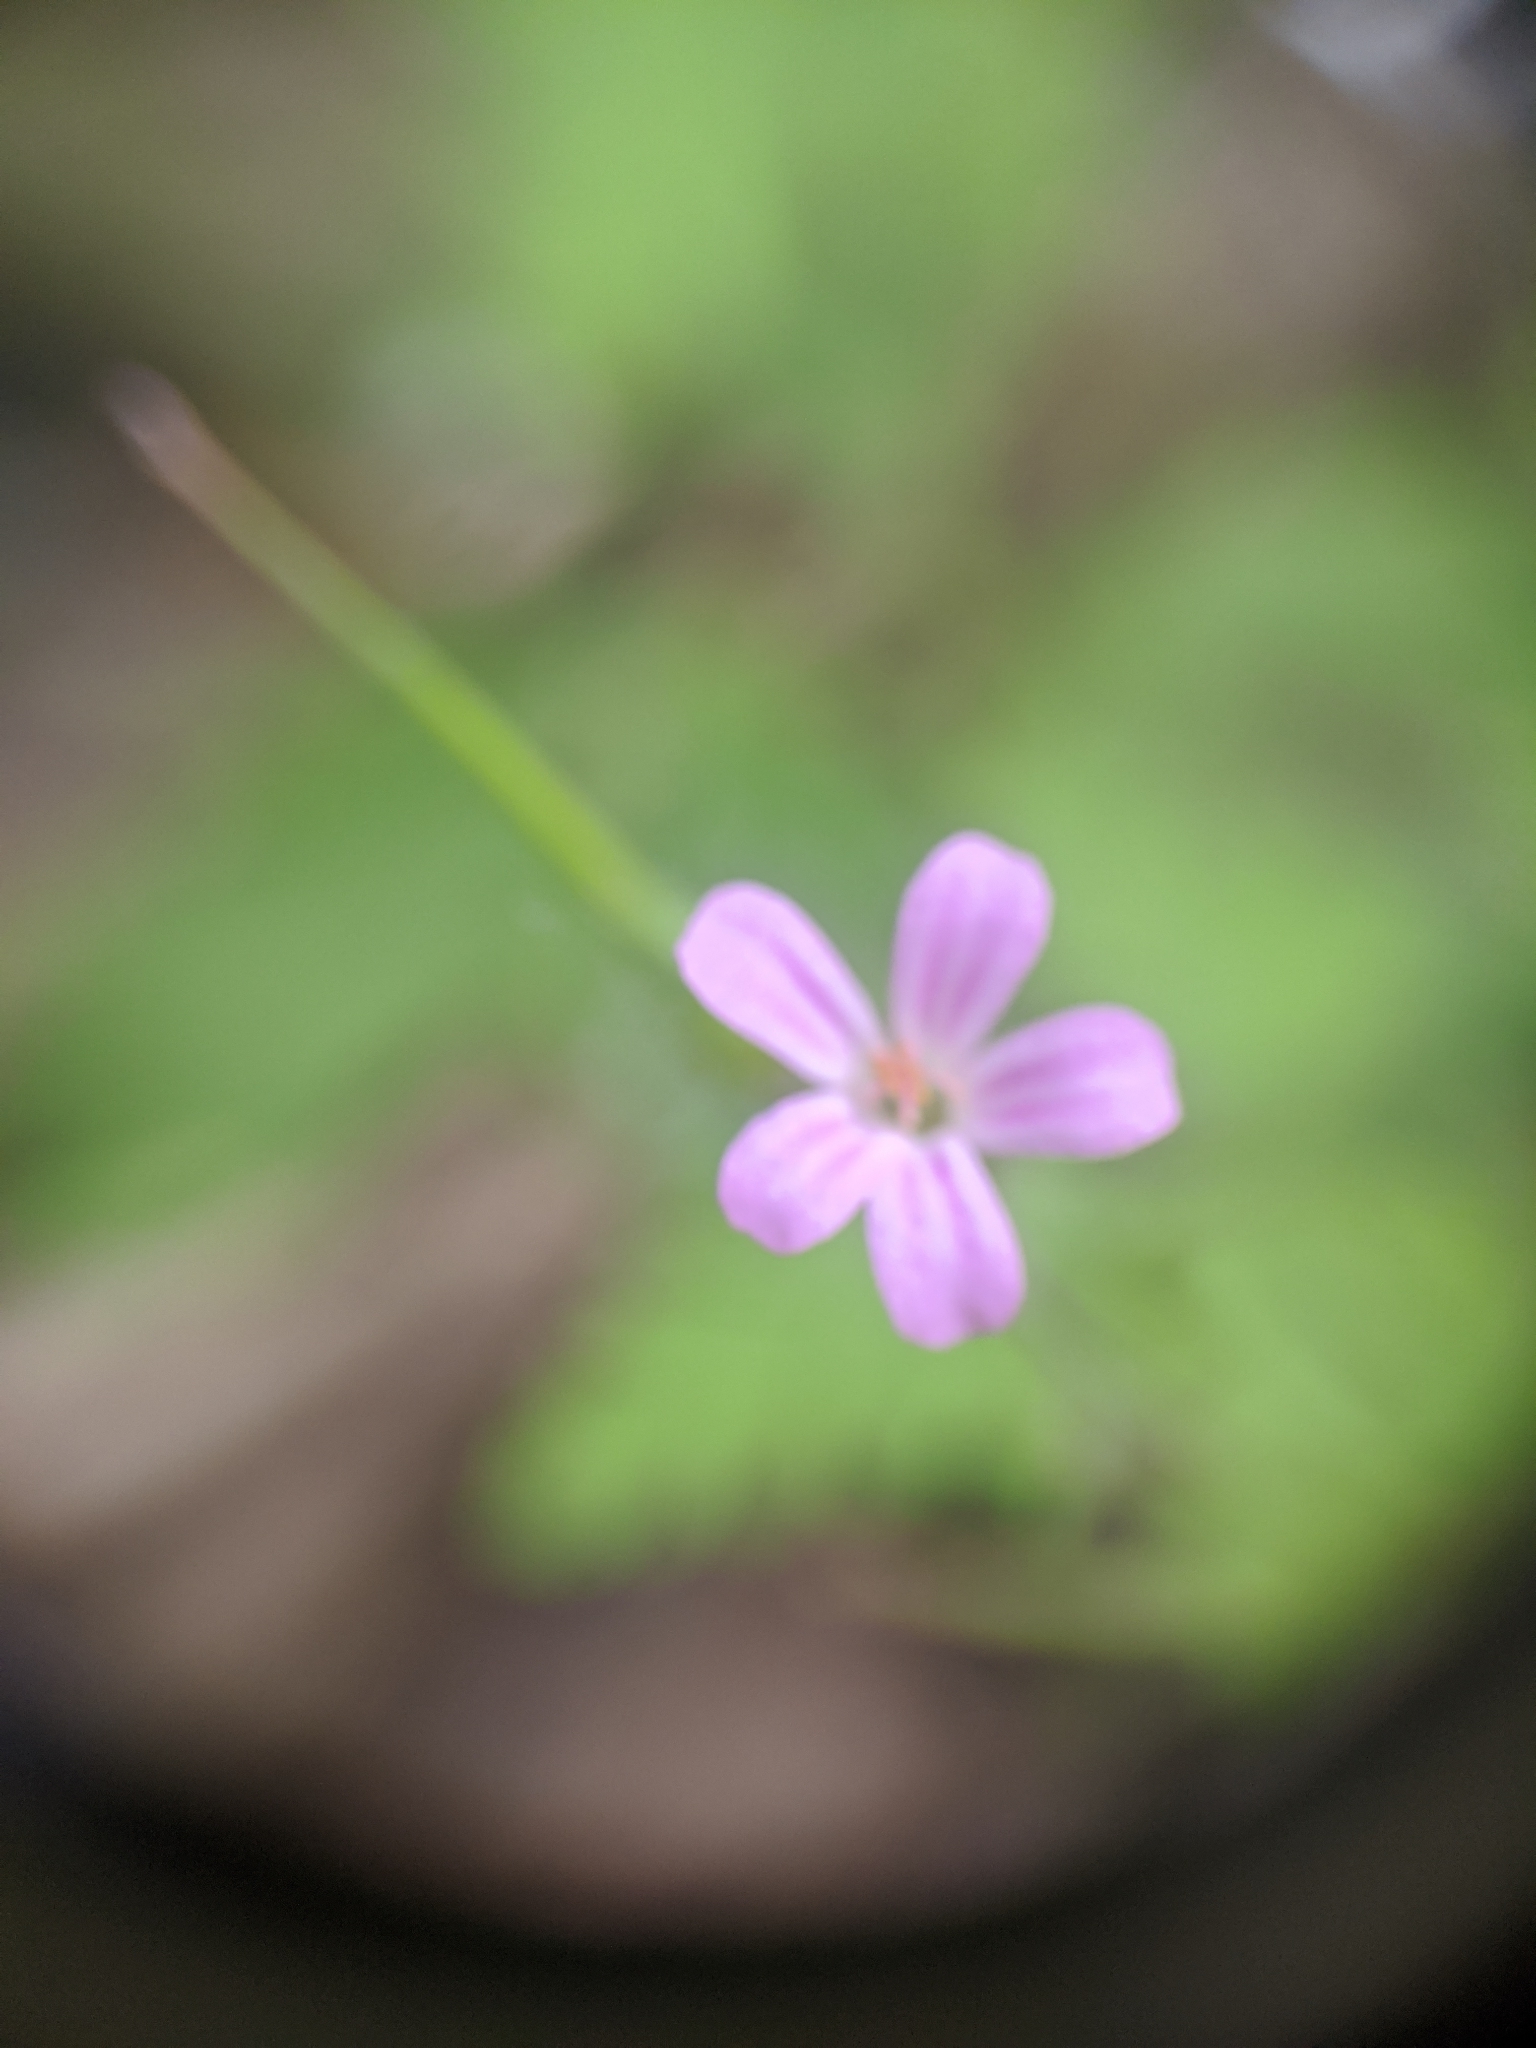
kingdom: Plantae
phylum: Tracheophyta
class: Magnoliopsida
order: Geraniales
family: Geraniaceae
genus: Geranium
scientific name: Geranium robertianum
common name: Herb-robert
